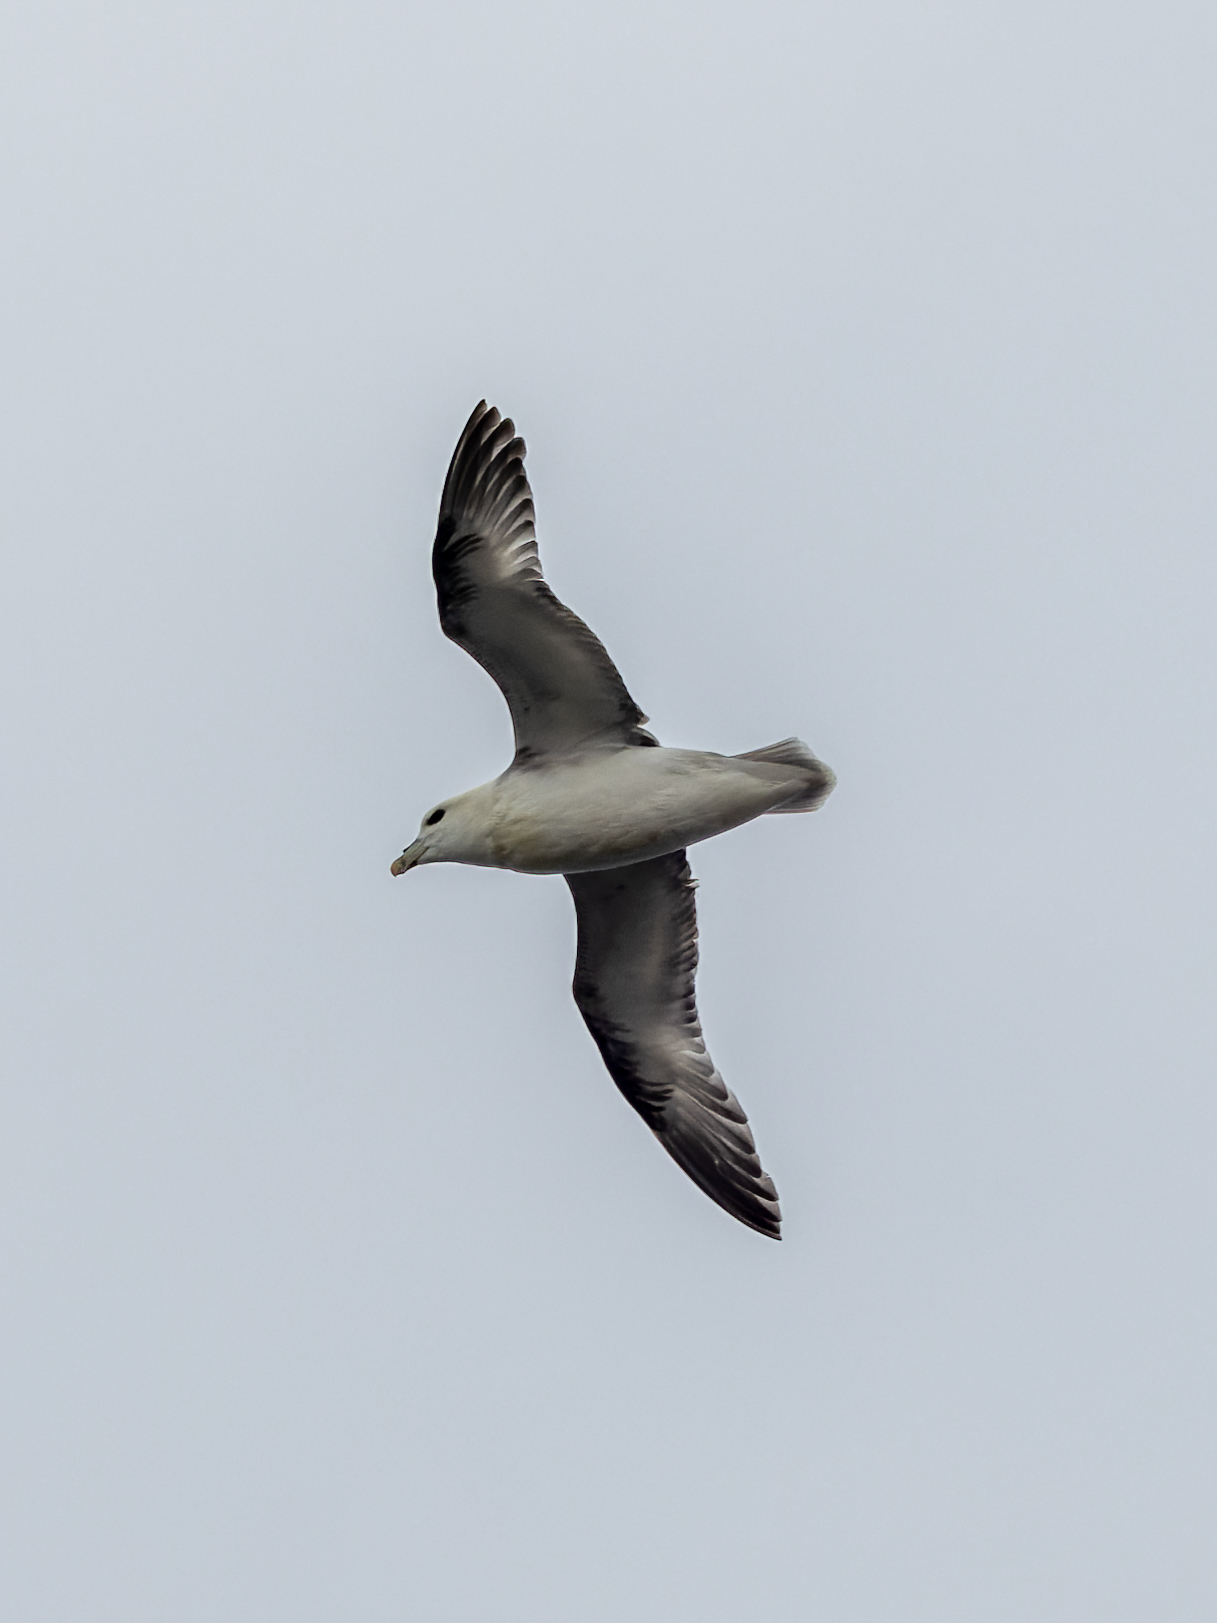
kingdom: Animalia
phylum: Chordata
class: Aves
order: Procellariiformes
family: Procellariidae
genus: Fulmarus
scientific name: Fulmarus glacialis
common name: Northern fulmar
